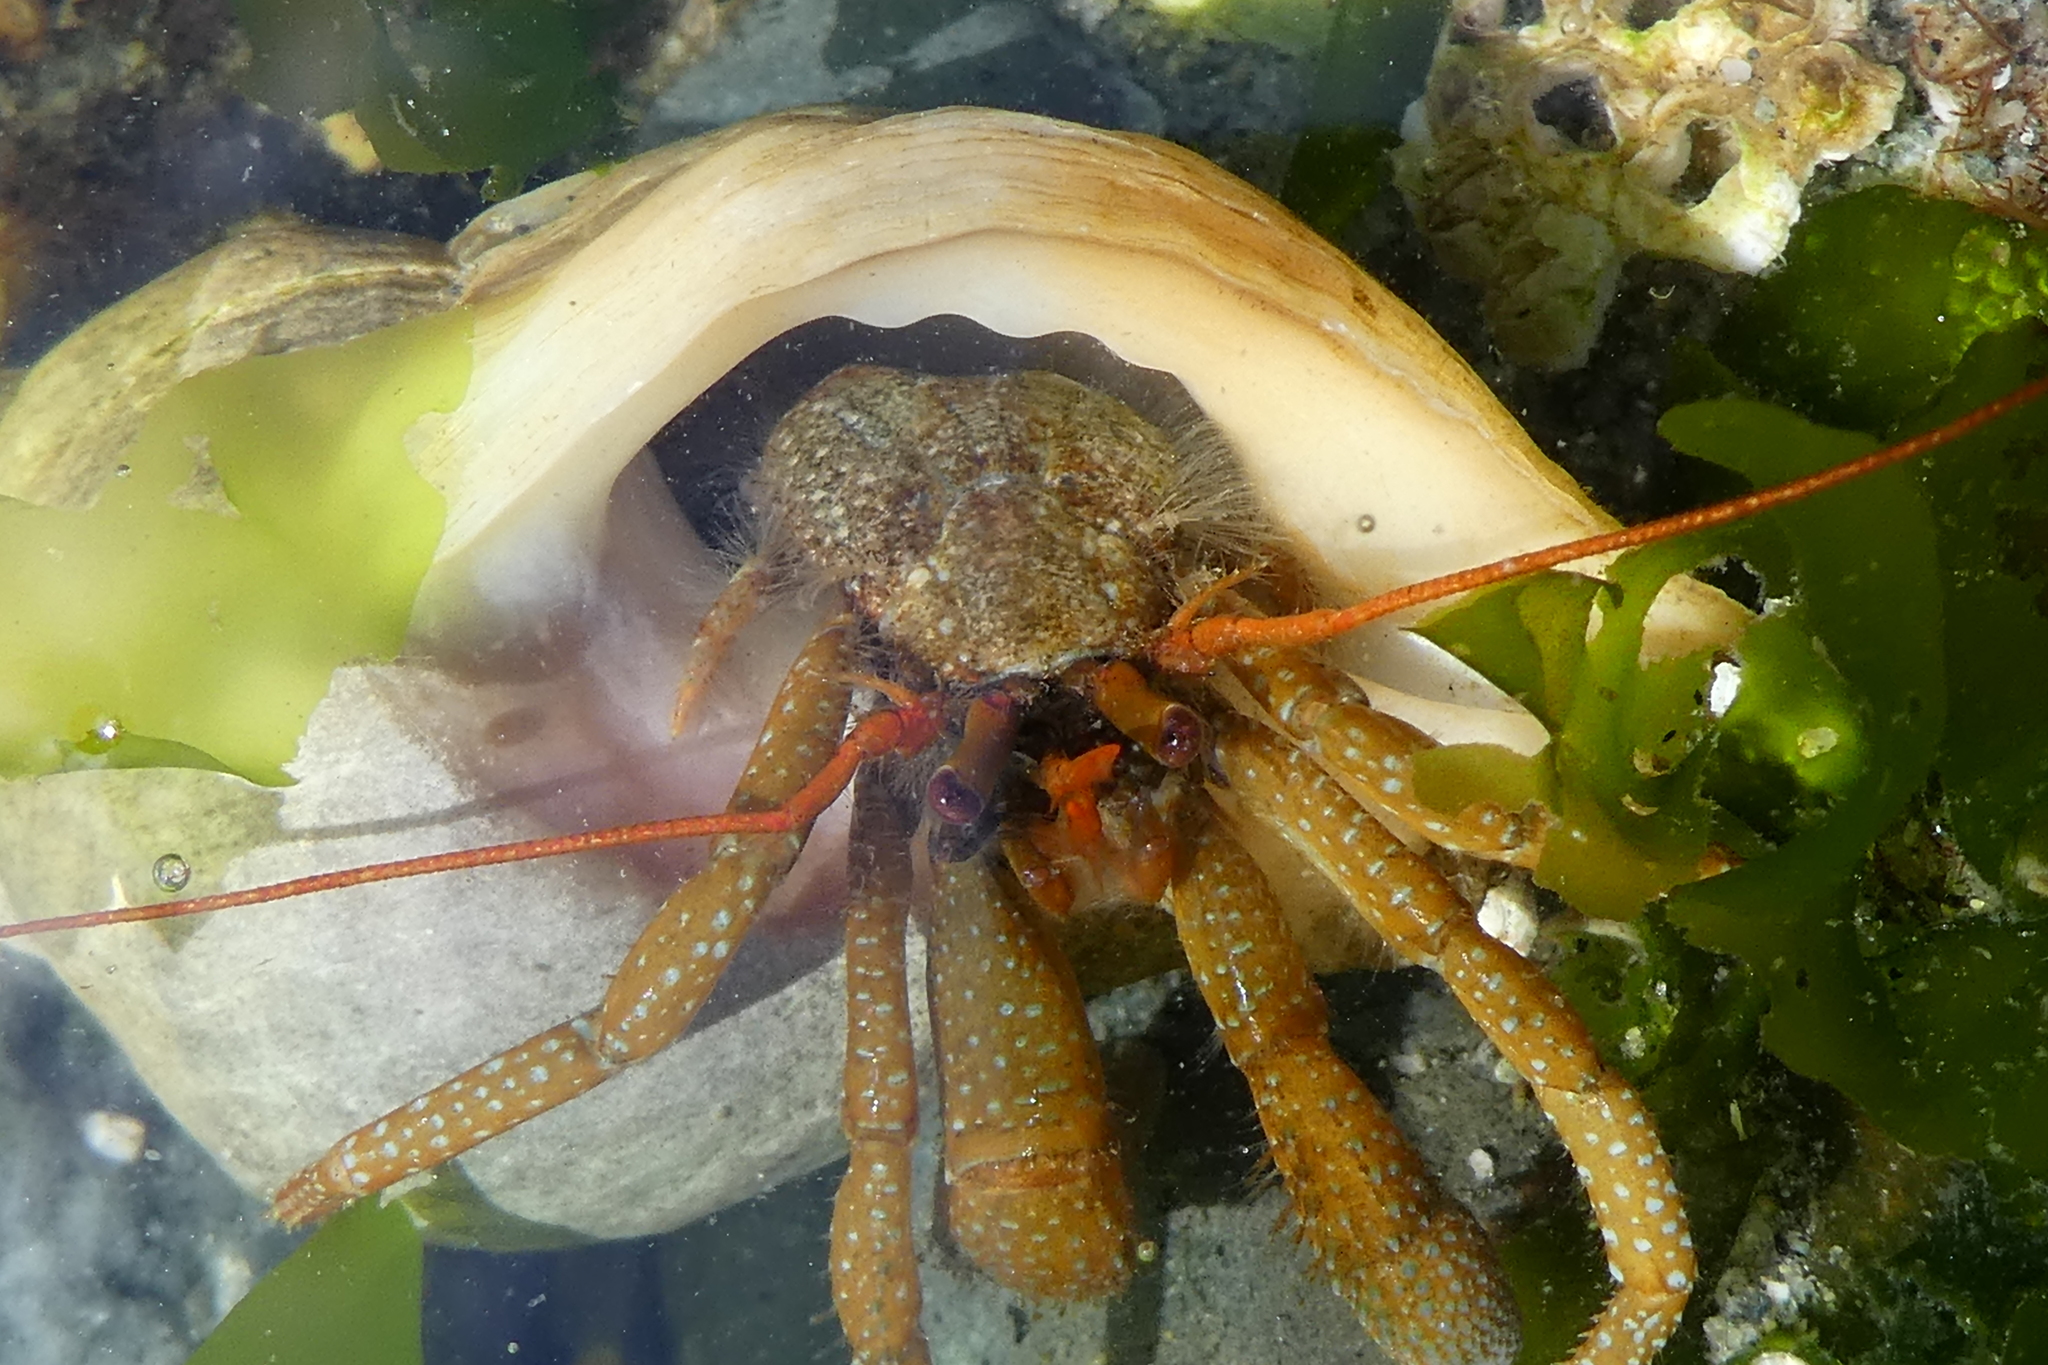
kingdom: Animalia
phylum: Arthropoda
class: Malacostraca
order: Decapoda
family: Paguridae
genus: Pagurus
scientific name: Pagurus granosimanus
